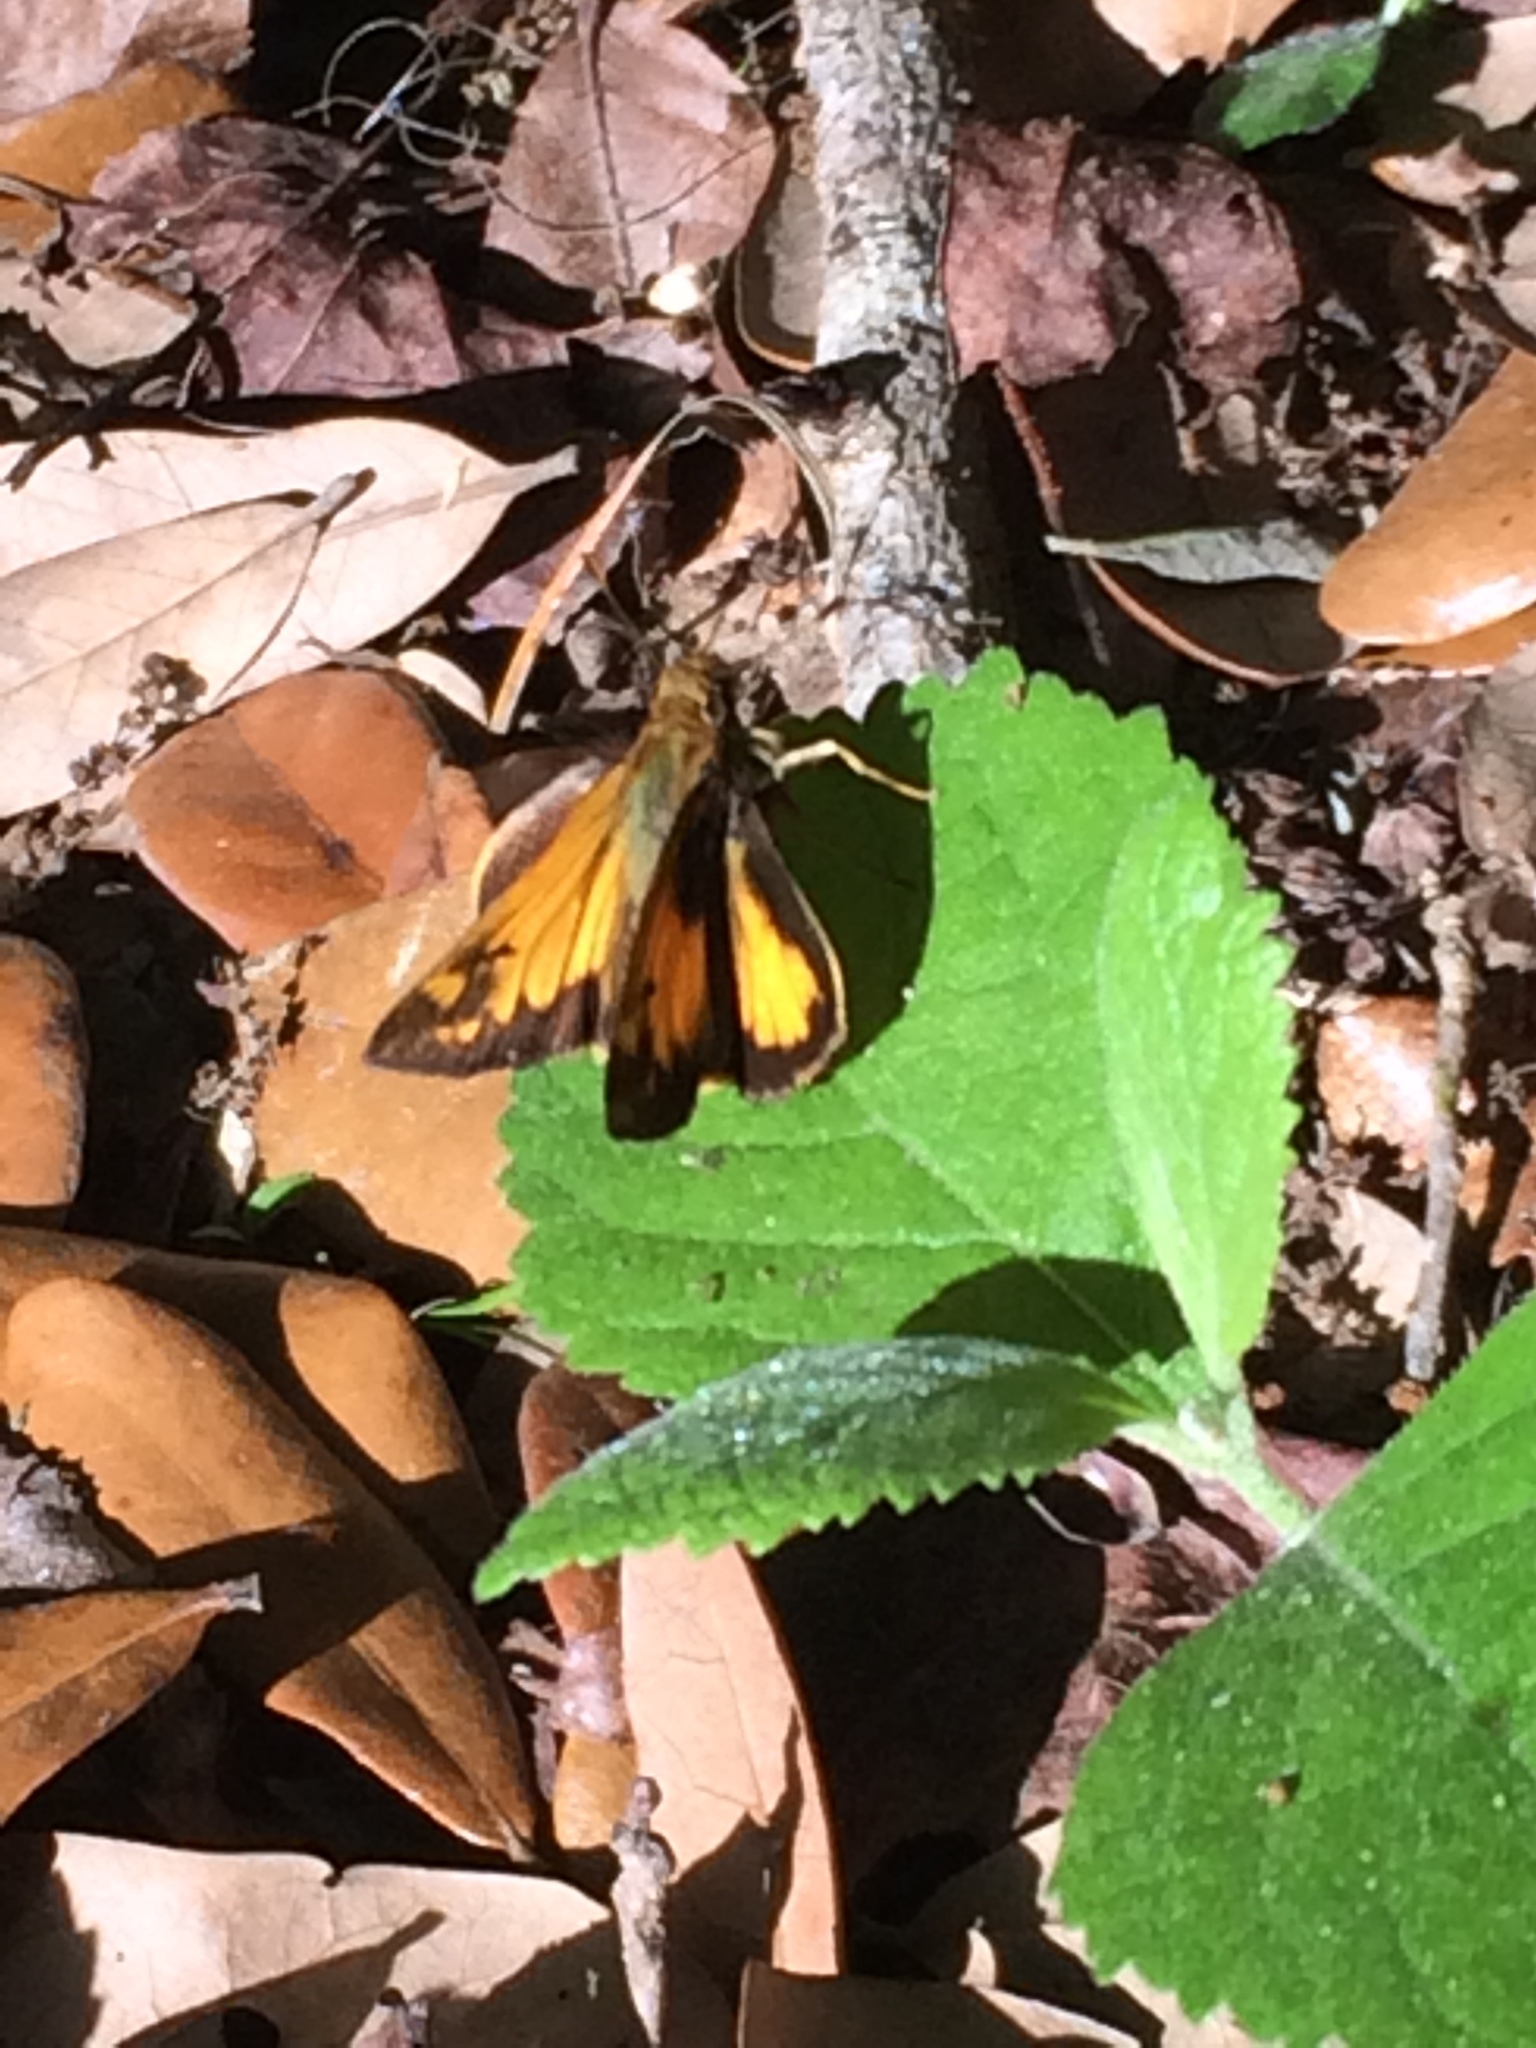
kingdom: Animalia
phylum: Arthropoda
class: Insecta
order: Lepidoptera
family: Hesperiidae
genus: Lon
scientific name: Lon zabulon
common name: Zabulon skipper
